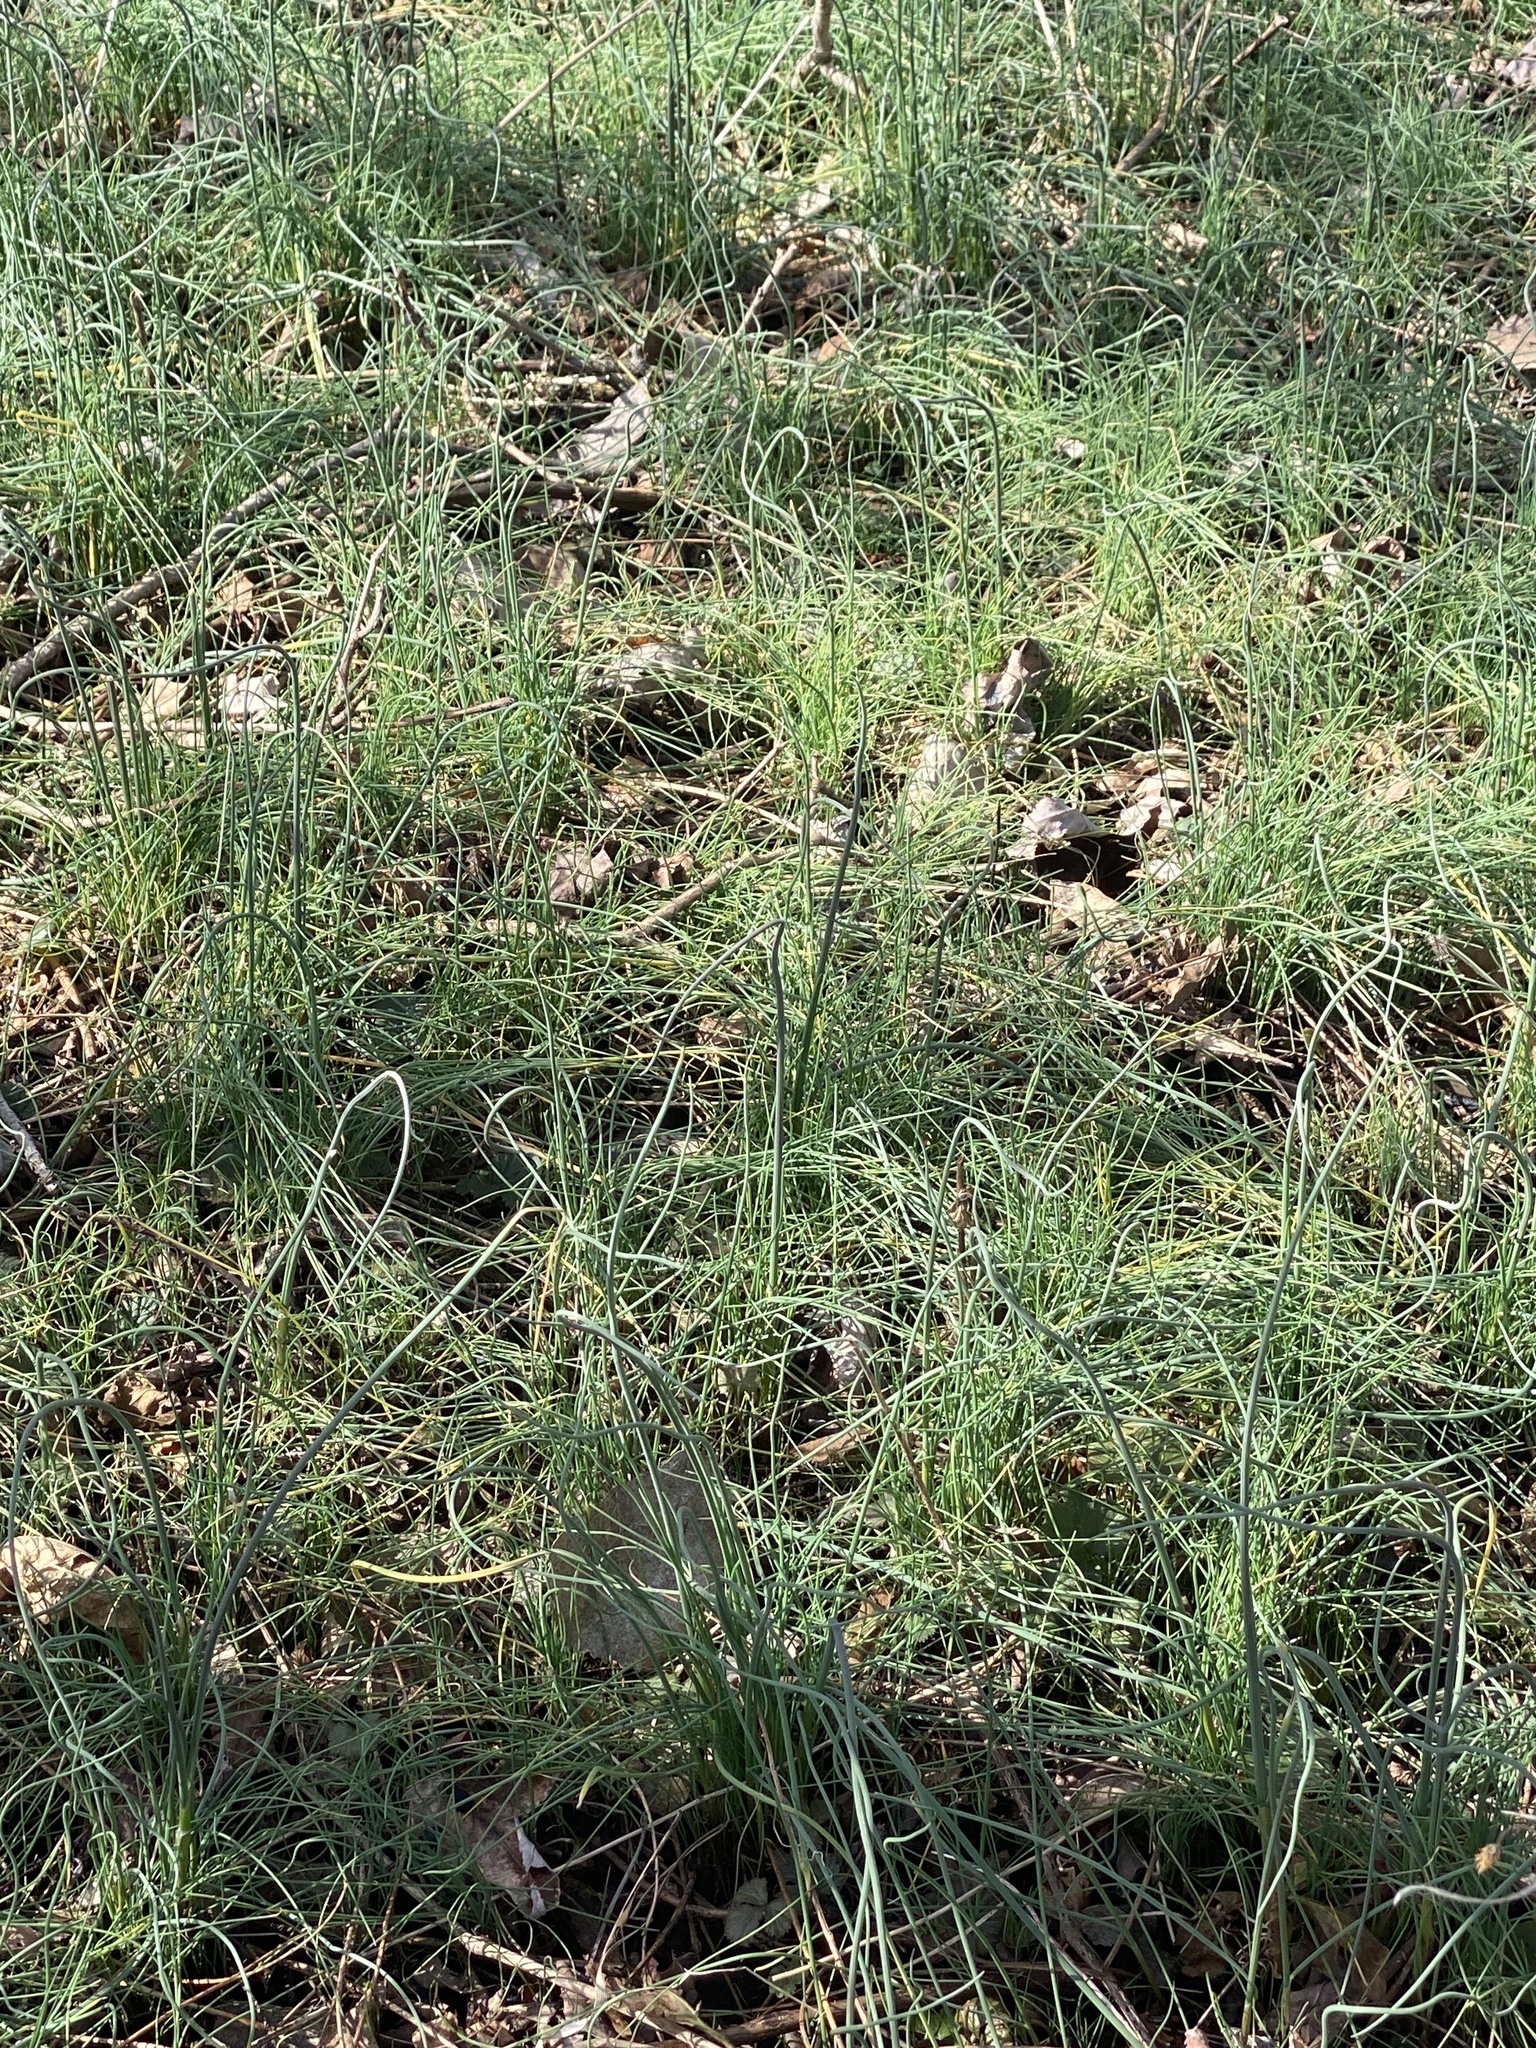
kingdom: Plantae
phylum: Tracheophyta
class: Liliopsida
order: Asparagales
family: Amaryllidaceae
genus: Allium
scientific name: Allium vineale
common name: Crow garlic
